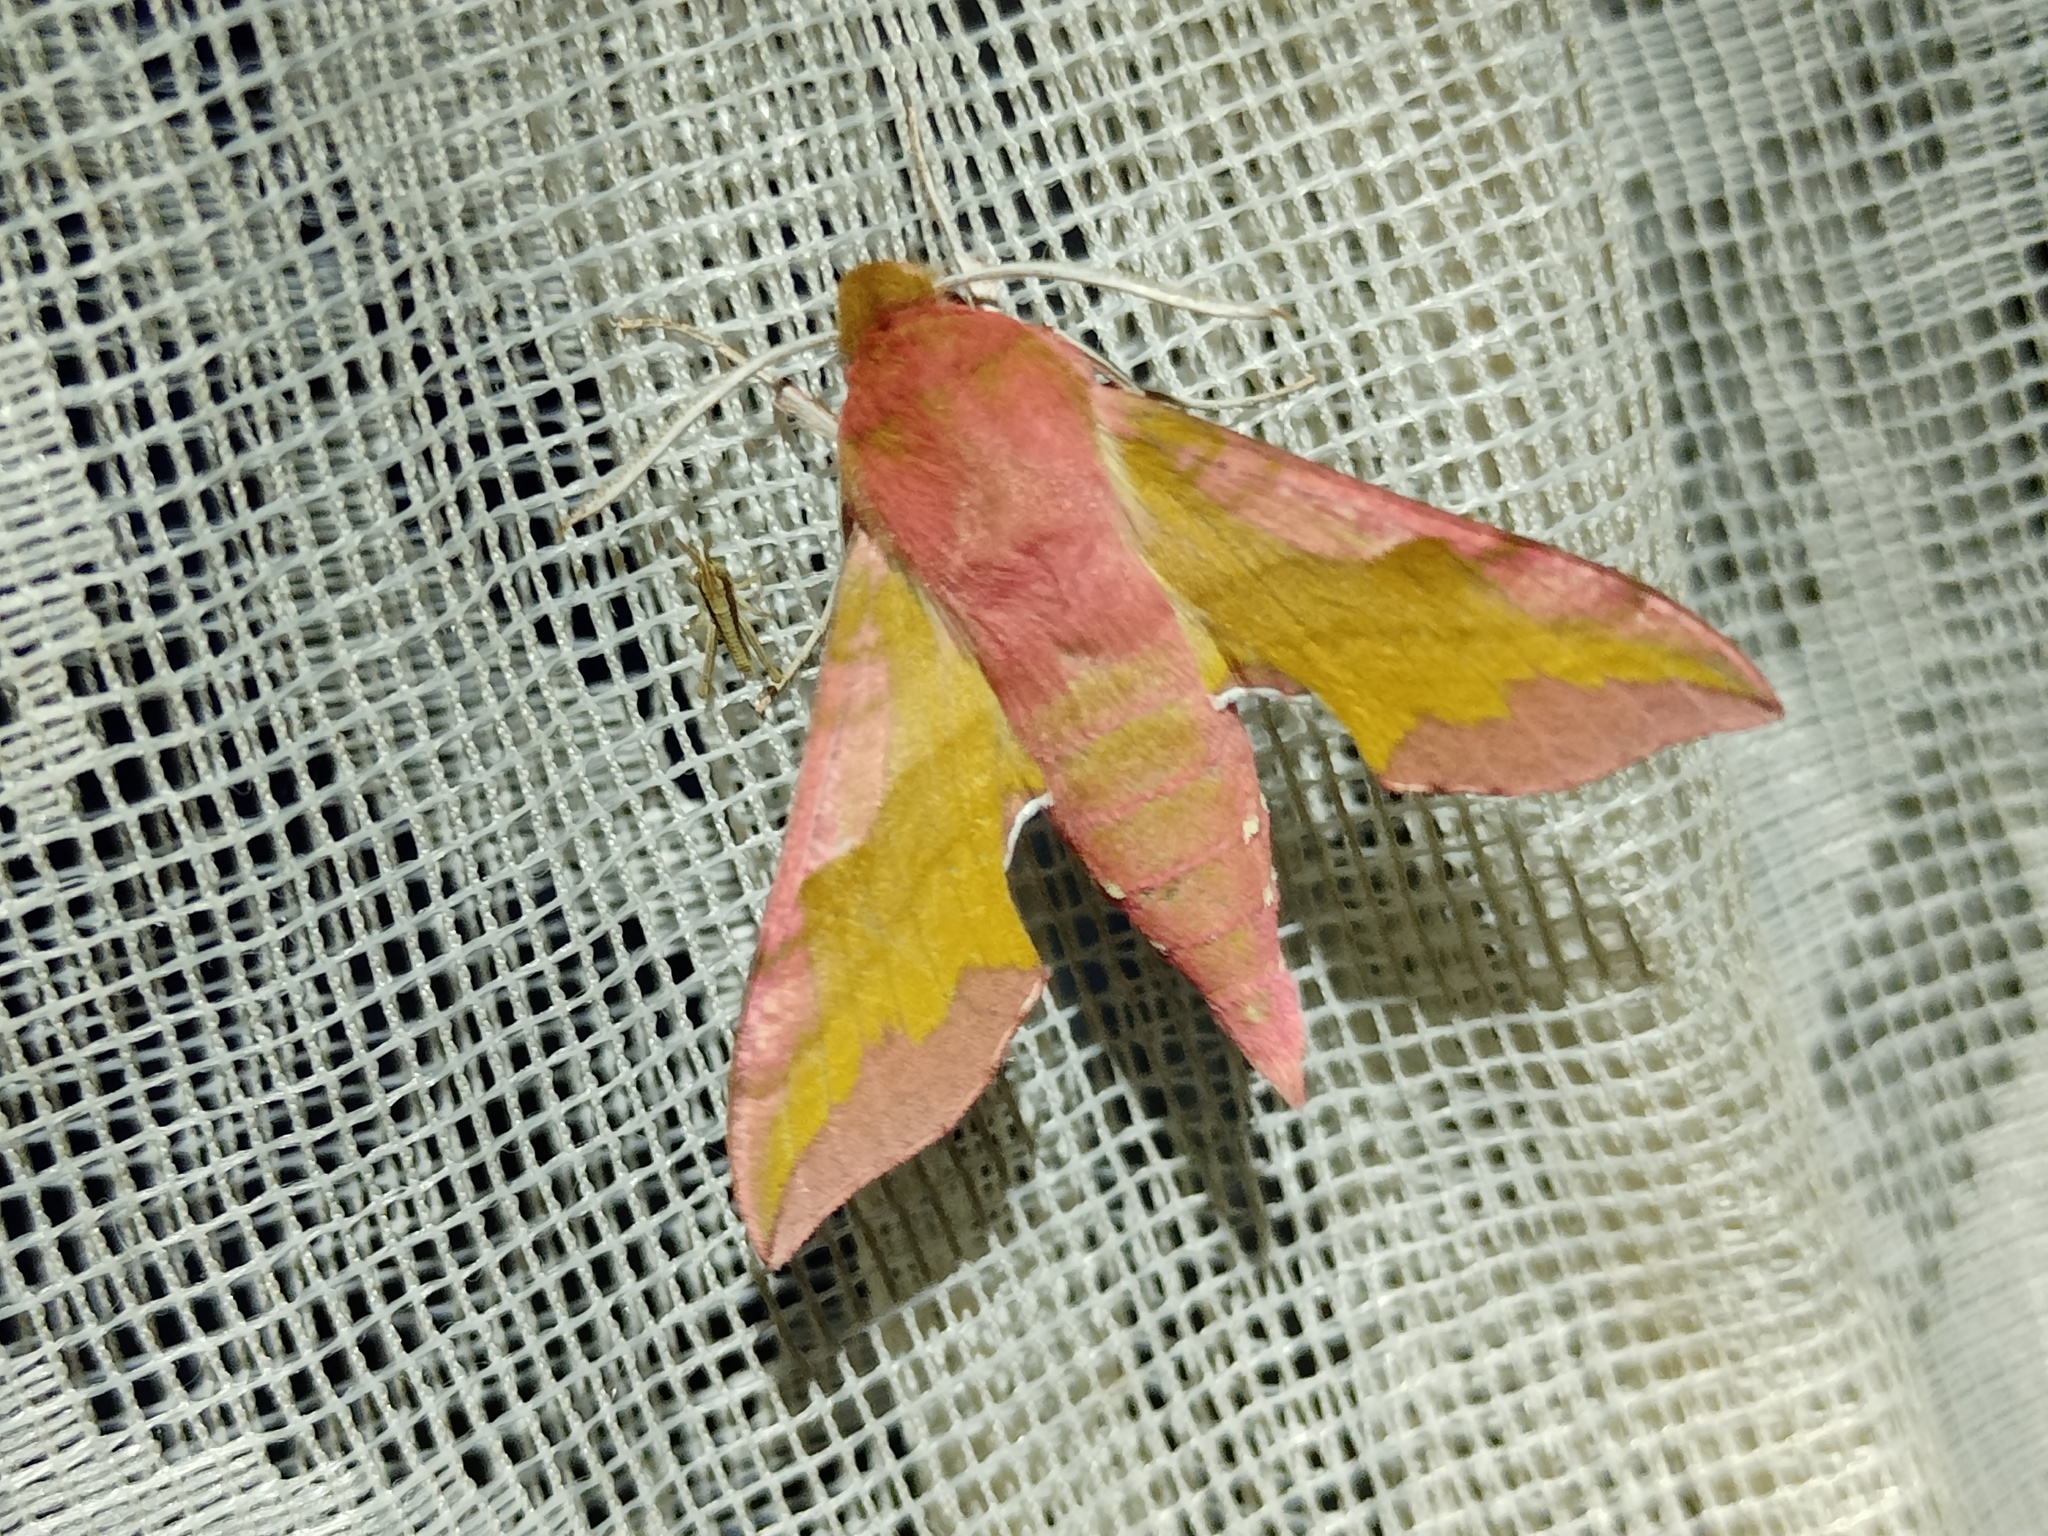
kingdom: Animalia
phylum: Arthropoda
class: Insecta
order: Lepidoptera
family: Sphingidae
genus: Deilephila
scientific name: Deilephila porcellus
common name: Small elephant hawk-moth
